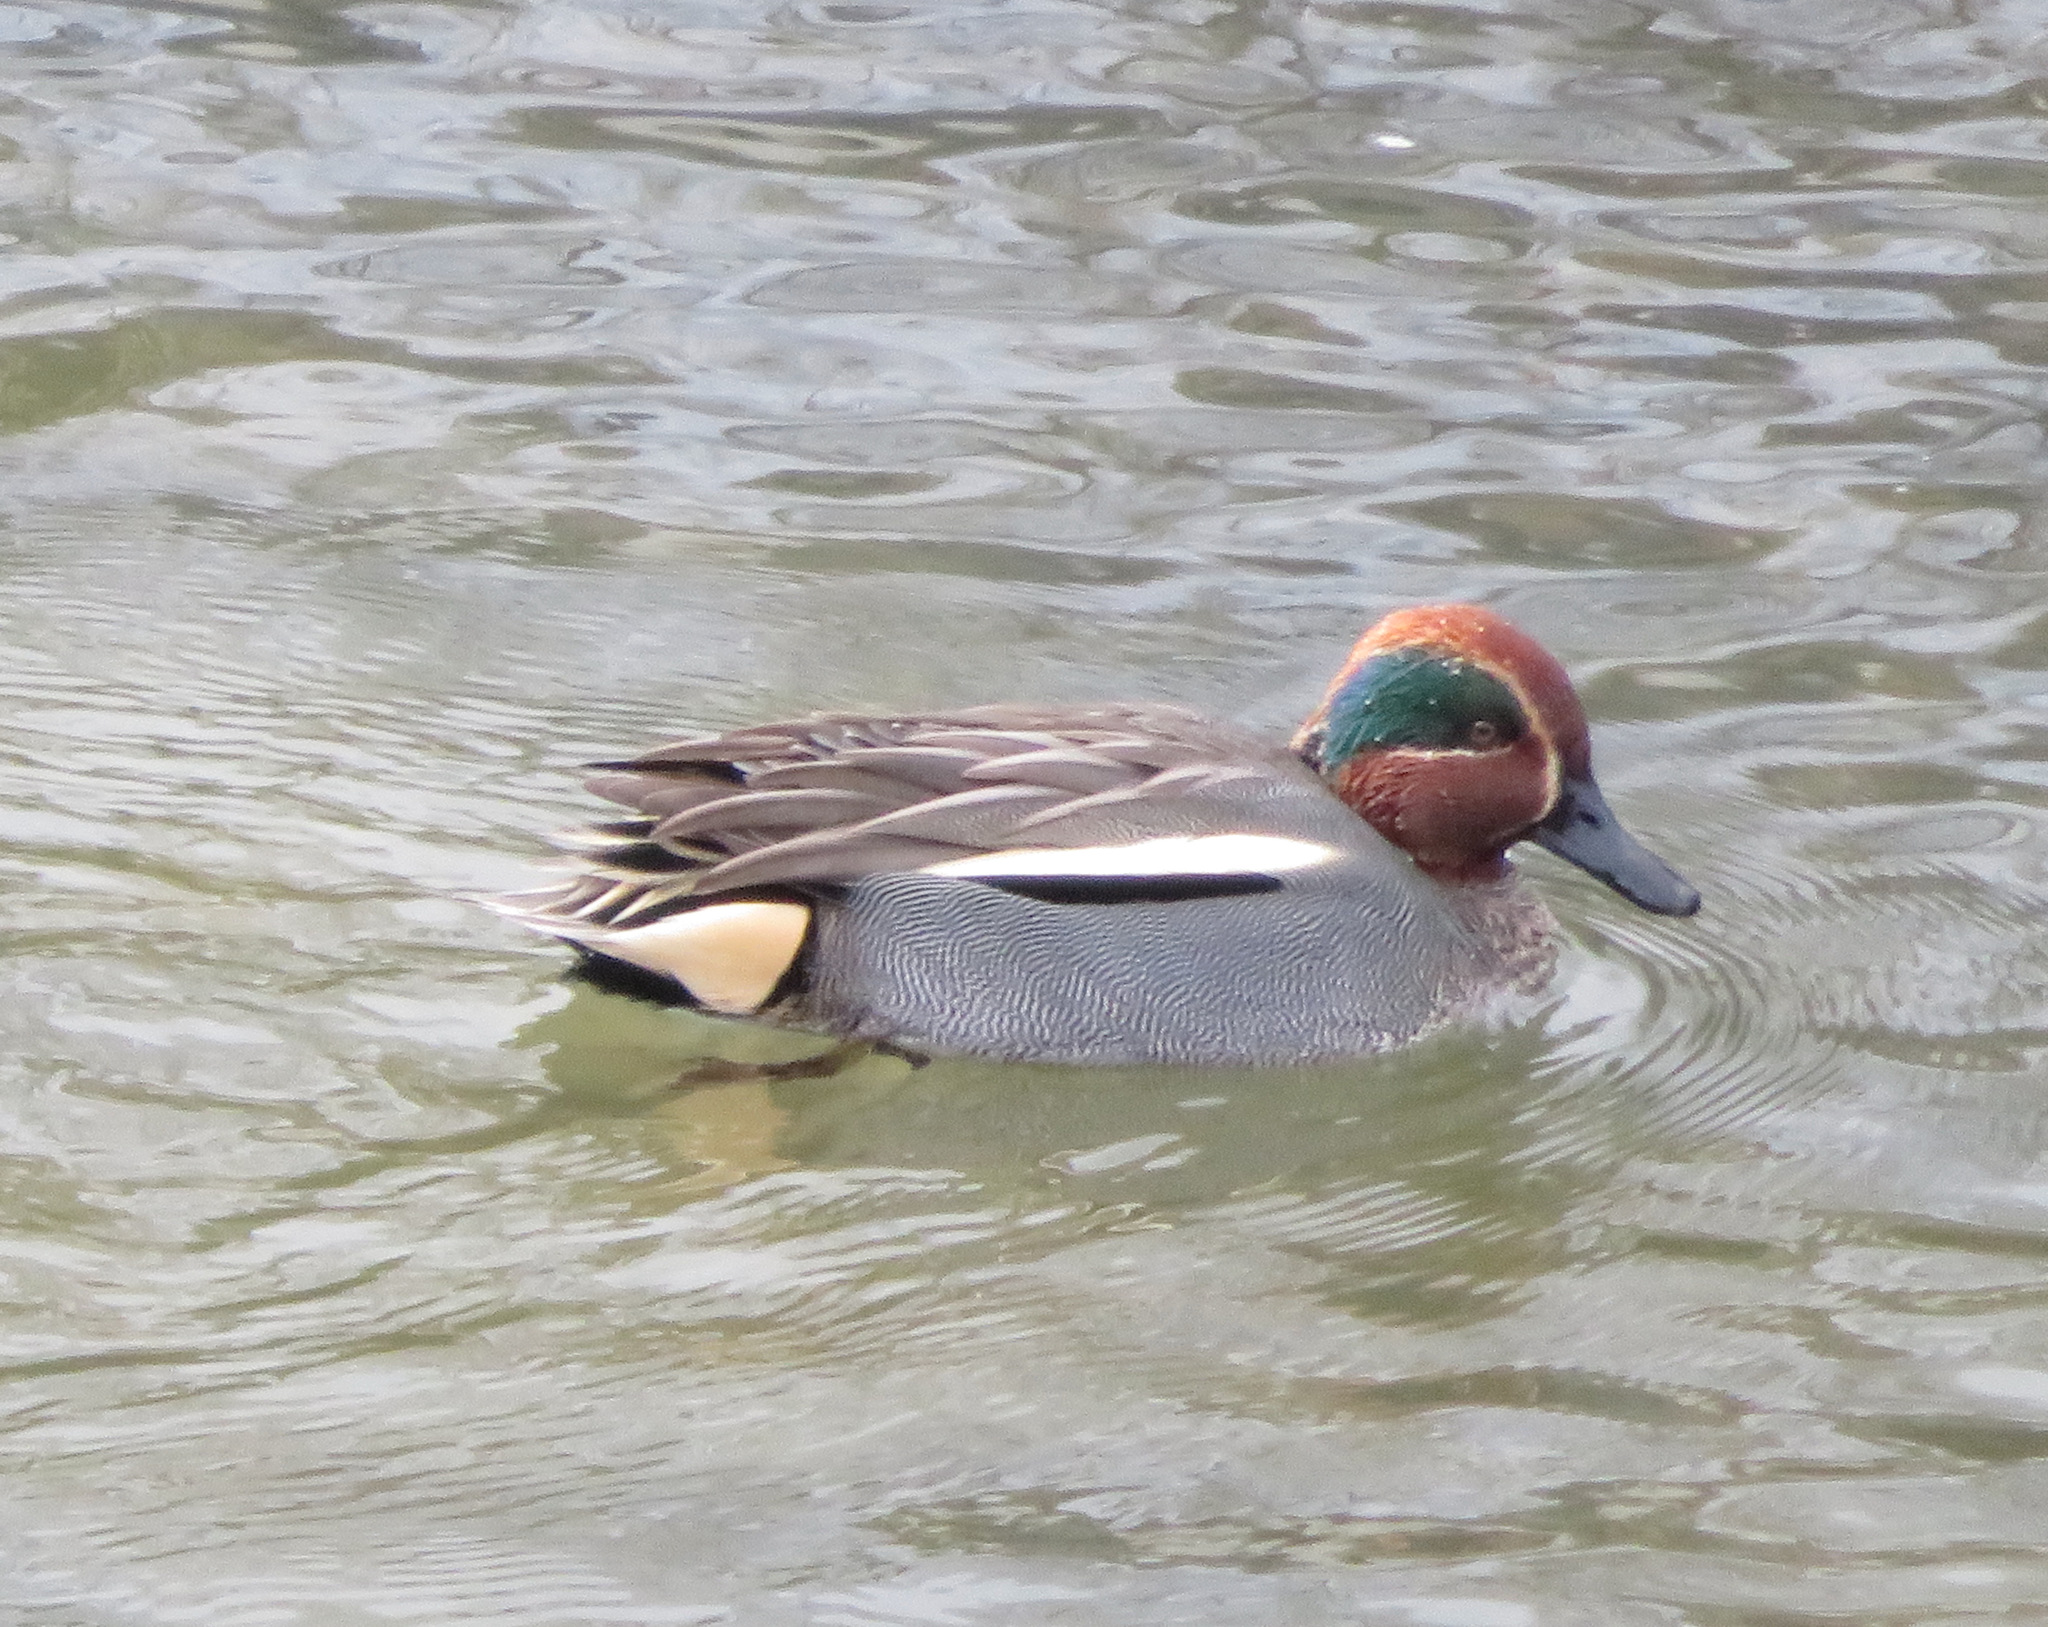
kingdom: Animalia
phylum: Chordata
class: Aves
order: Anseriformes
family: Anatidae
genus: Anas
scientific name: Anas crecca
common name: Eurasian teal
